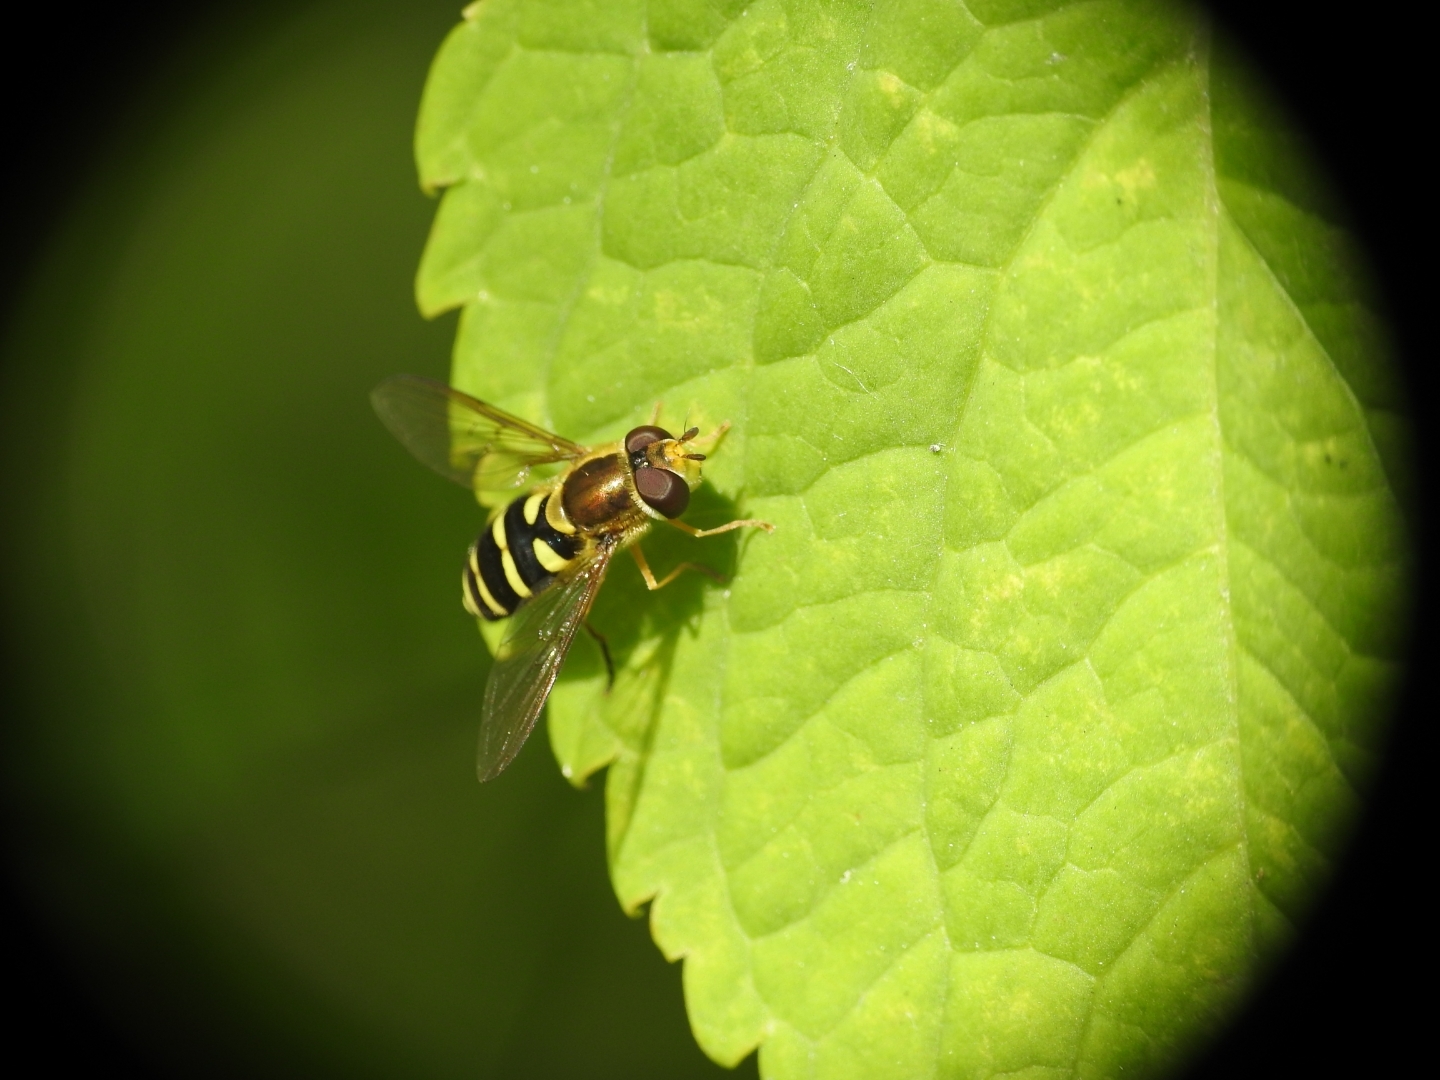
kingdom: Animalia
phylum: Arthropoda
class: Insecta
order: Diptera
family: Syrphidae
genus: Syrphus
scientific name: Syrphus opinator
